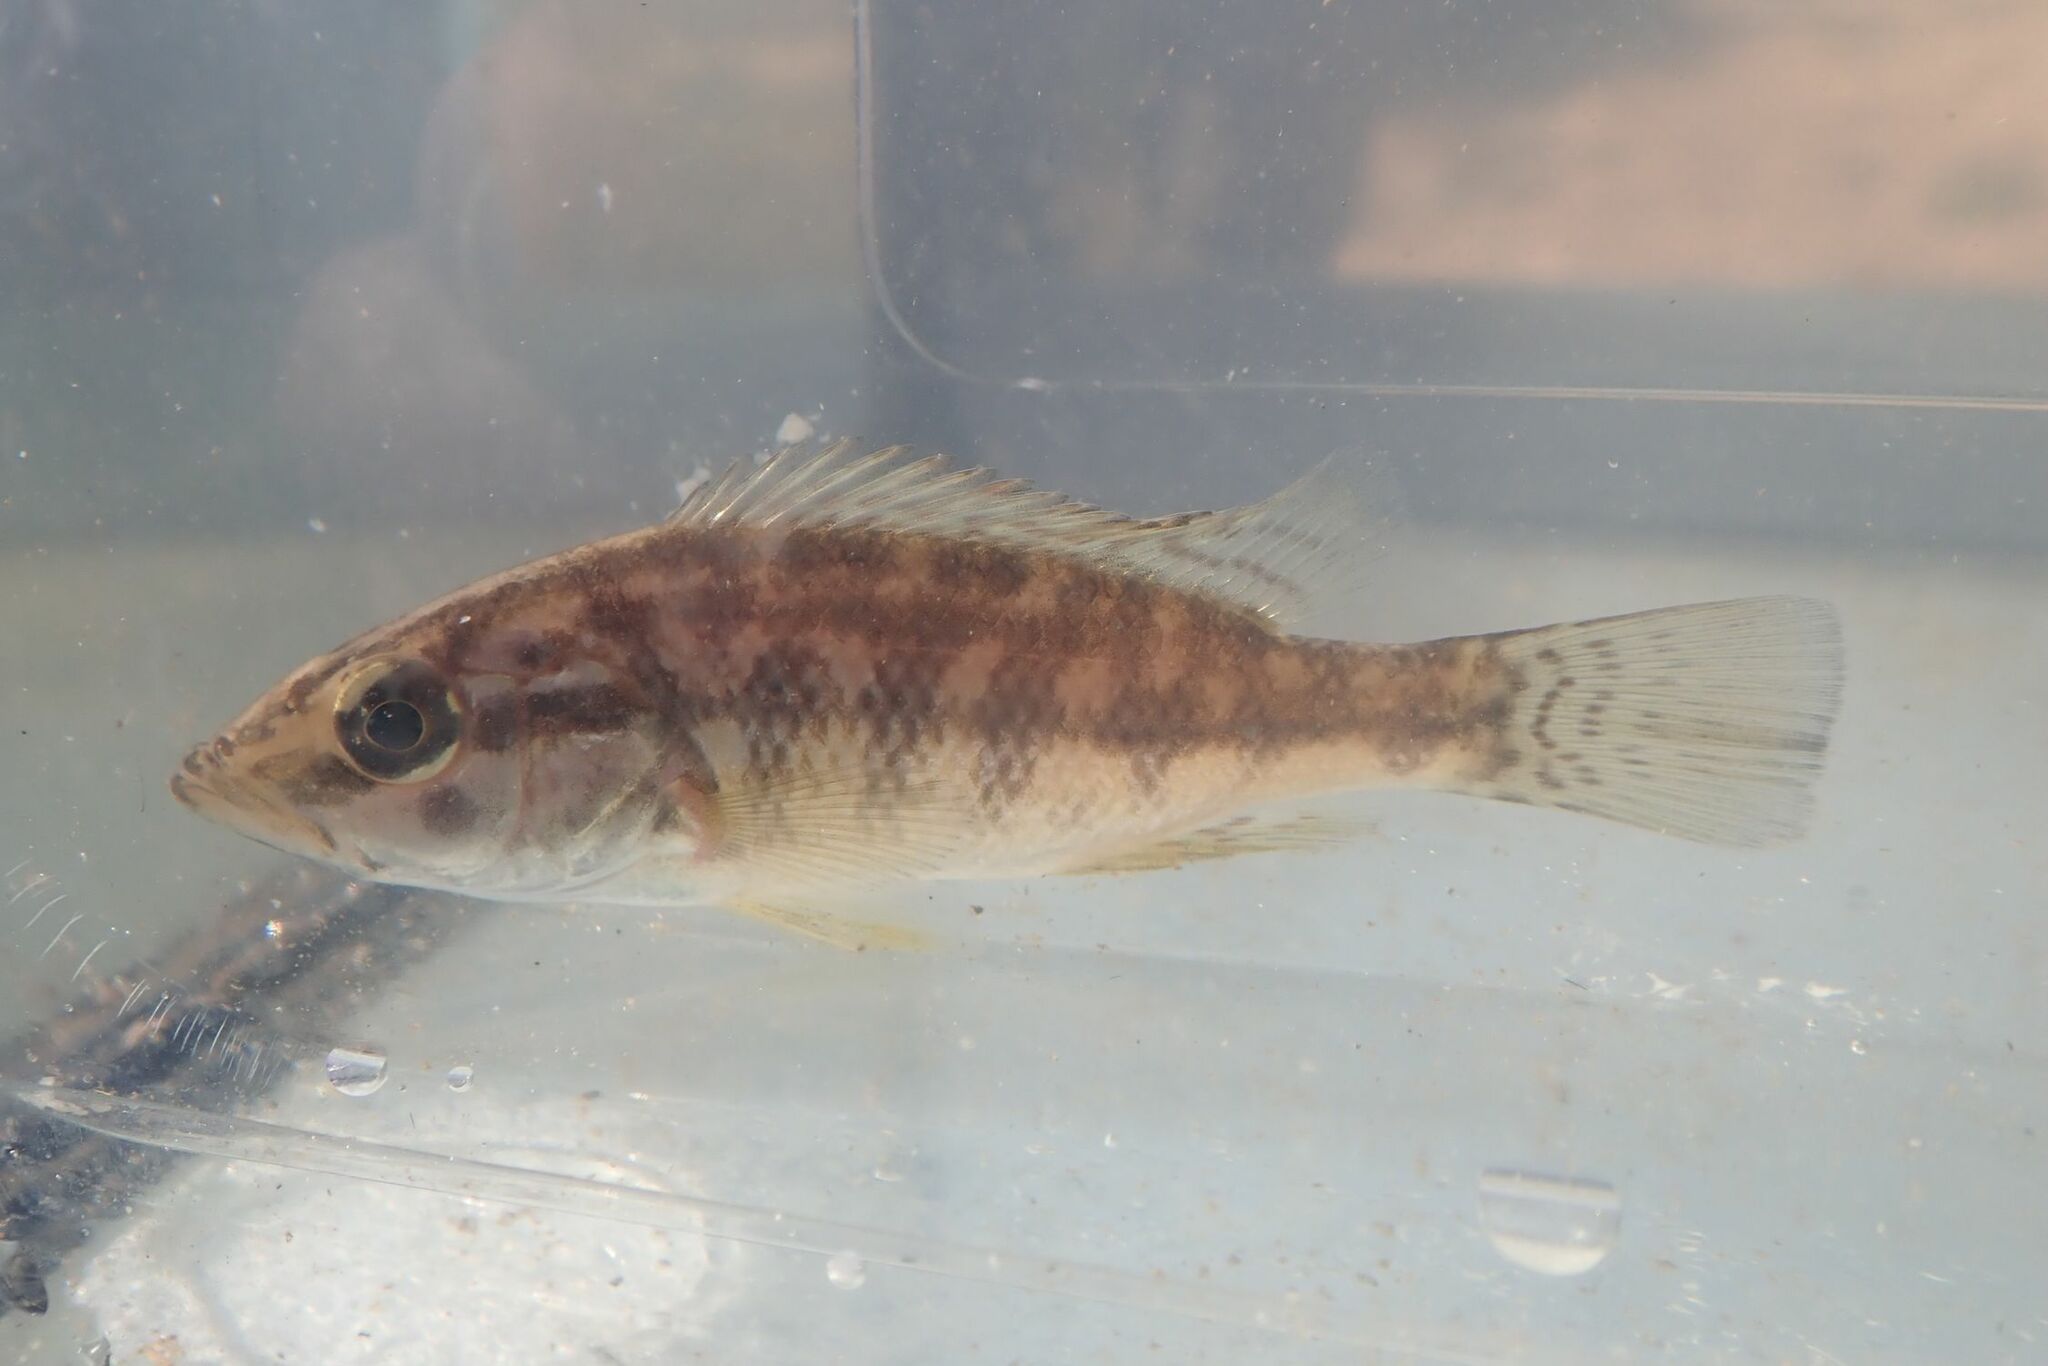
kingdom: Animalia
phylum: Chordata
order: Perciformes
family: Cichlidae
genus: Serranochromis
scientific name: Serranochromis meridianus
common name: Lowveld largemouth
